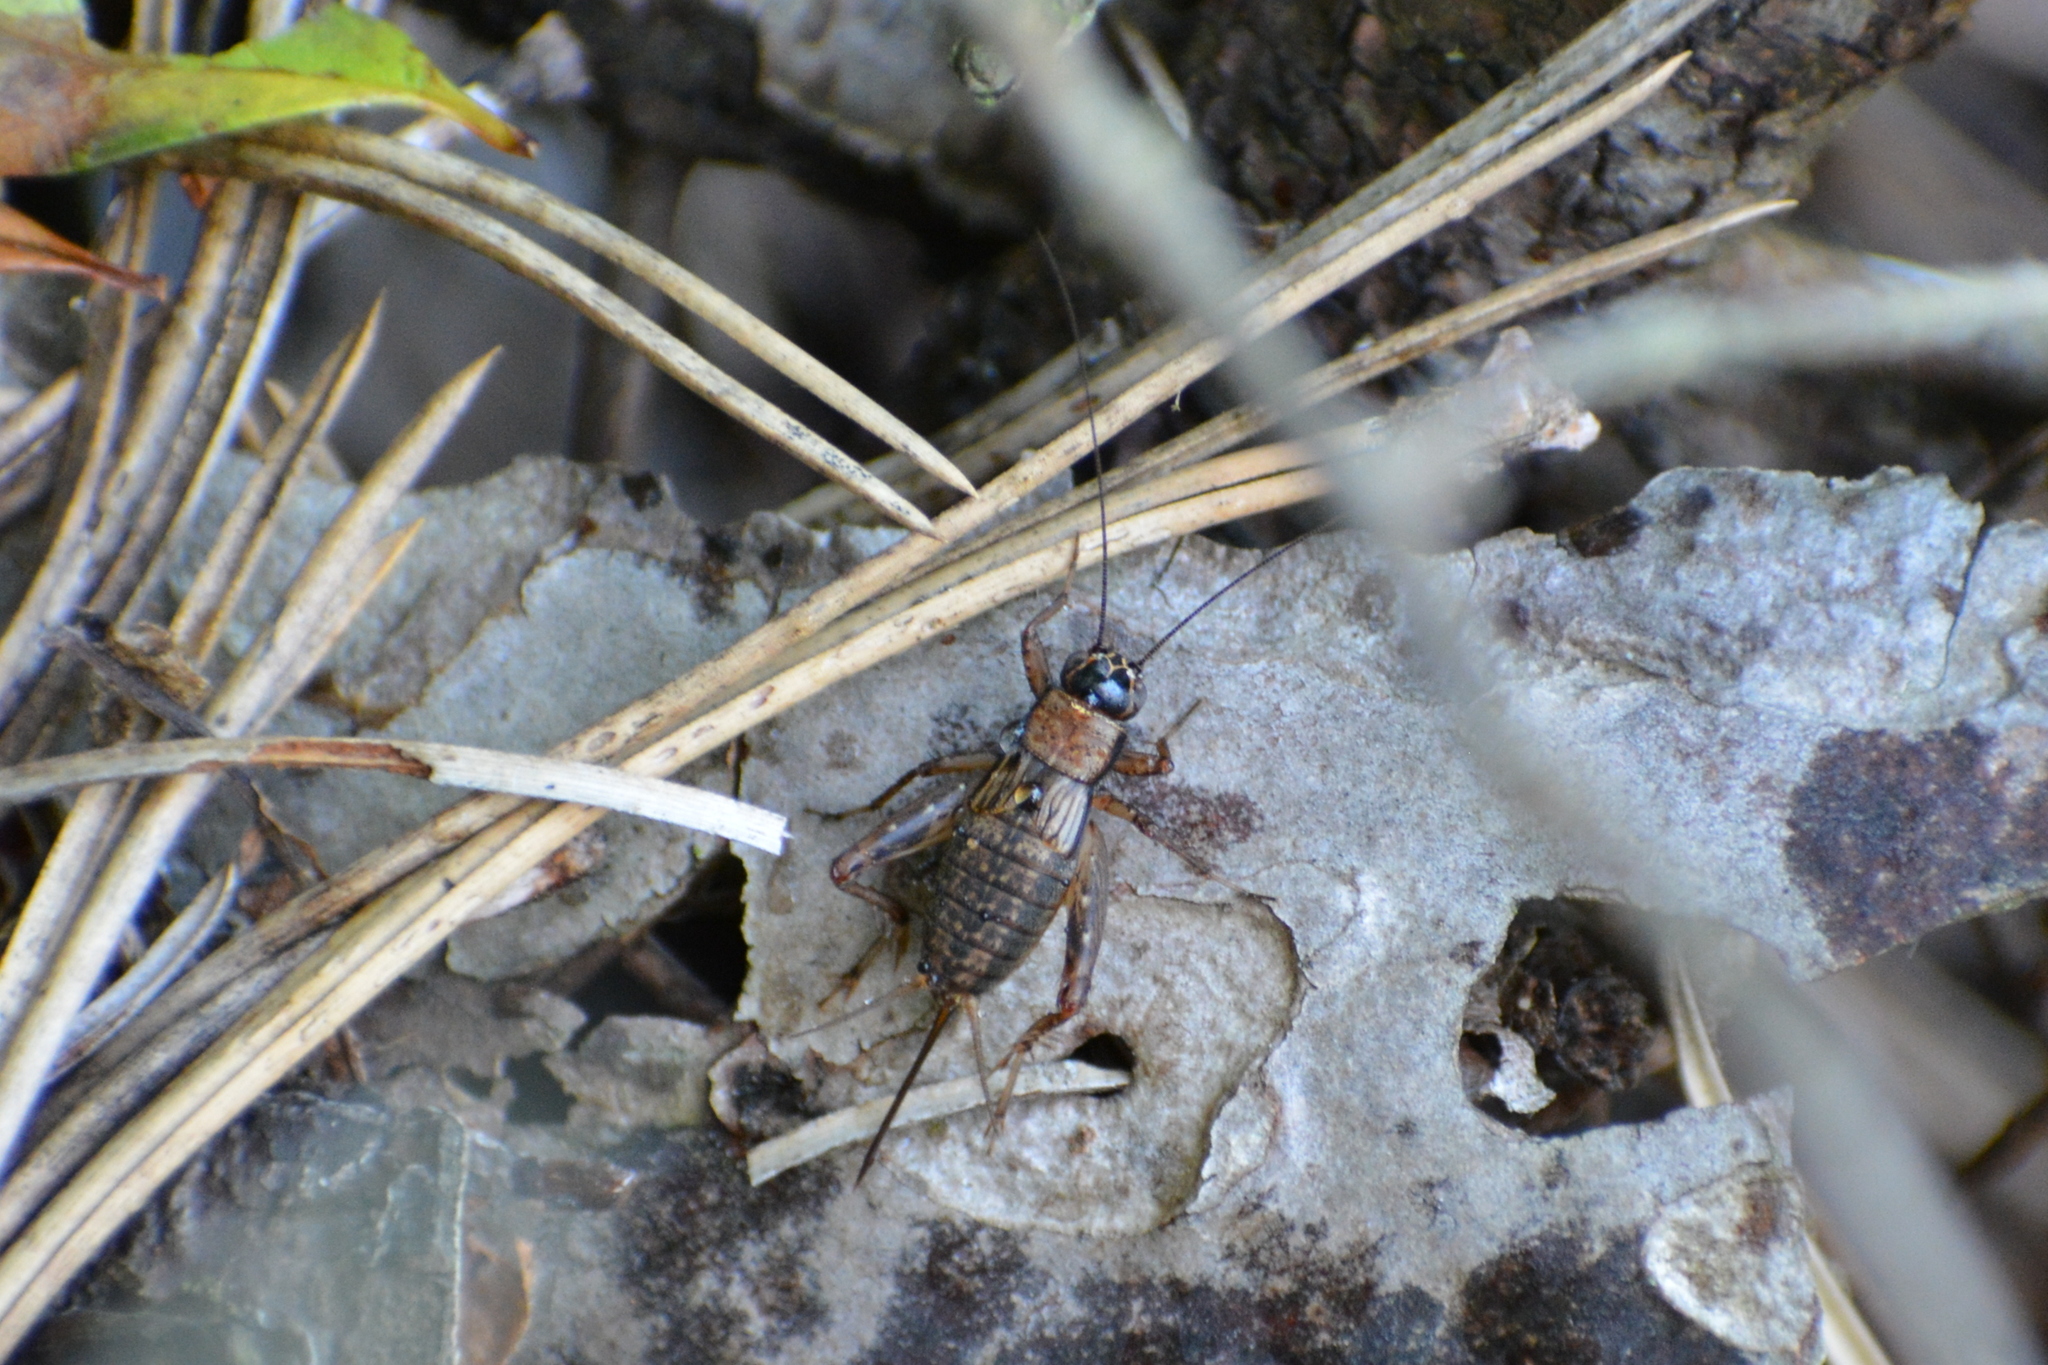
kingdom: Animalia
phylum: Arthropoda
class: Insecta
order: Orthoptera
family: Trigonidiidae
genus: Nemobius
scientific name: Nemobius sylvestris
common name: Wood-cricket
